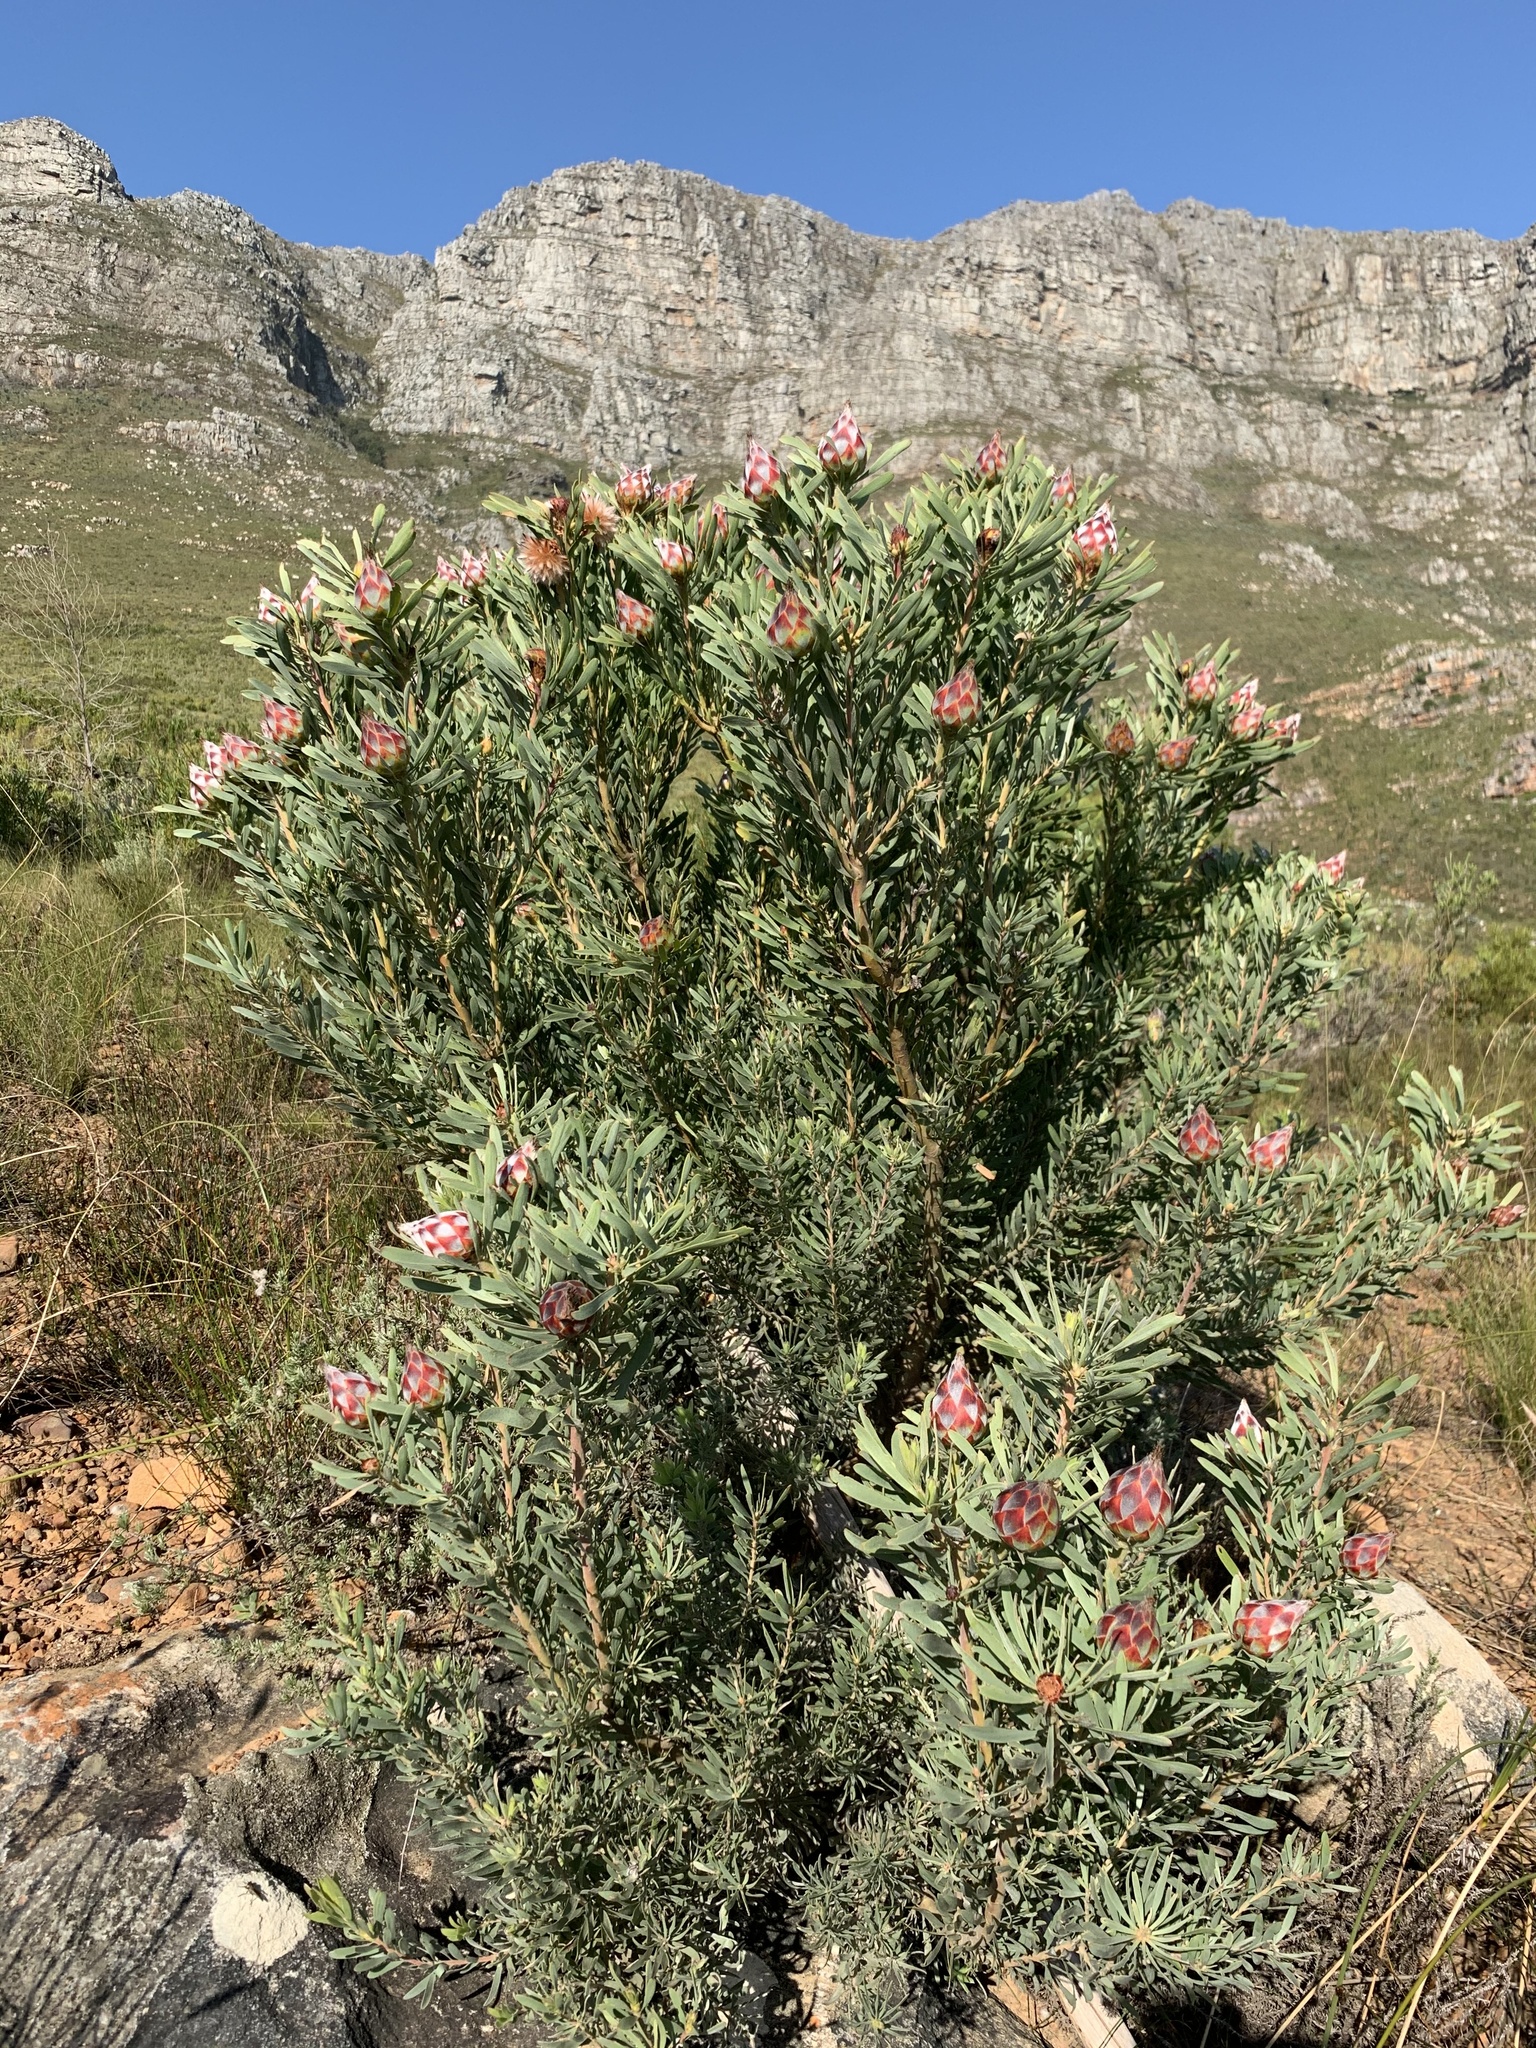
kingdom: Plantae
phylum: Tracheophyta
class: Magnoliopsida
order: Proteales
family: Proteaceae
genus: Leucadendron
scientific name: Leucadendron rubrum
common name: Spinning top
